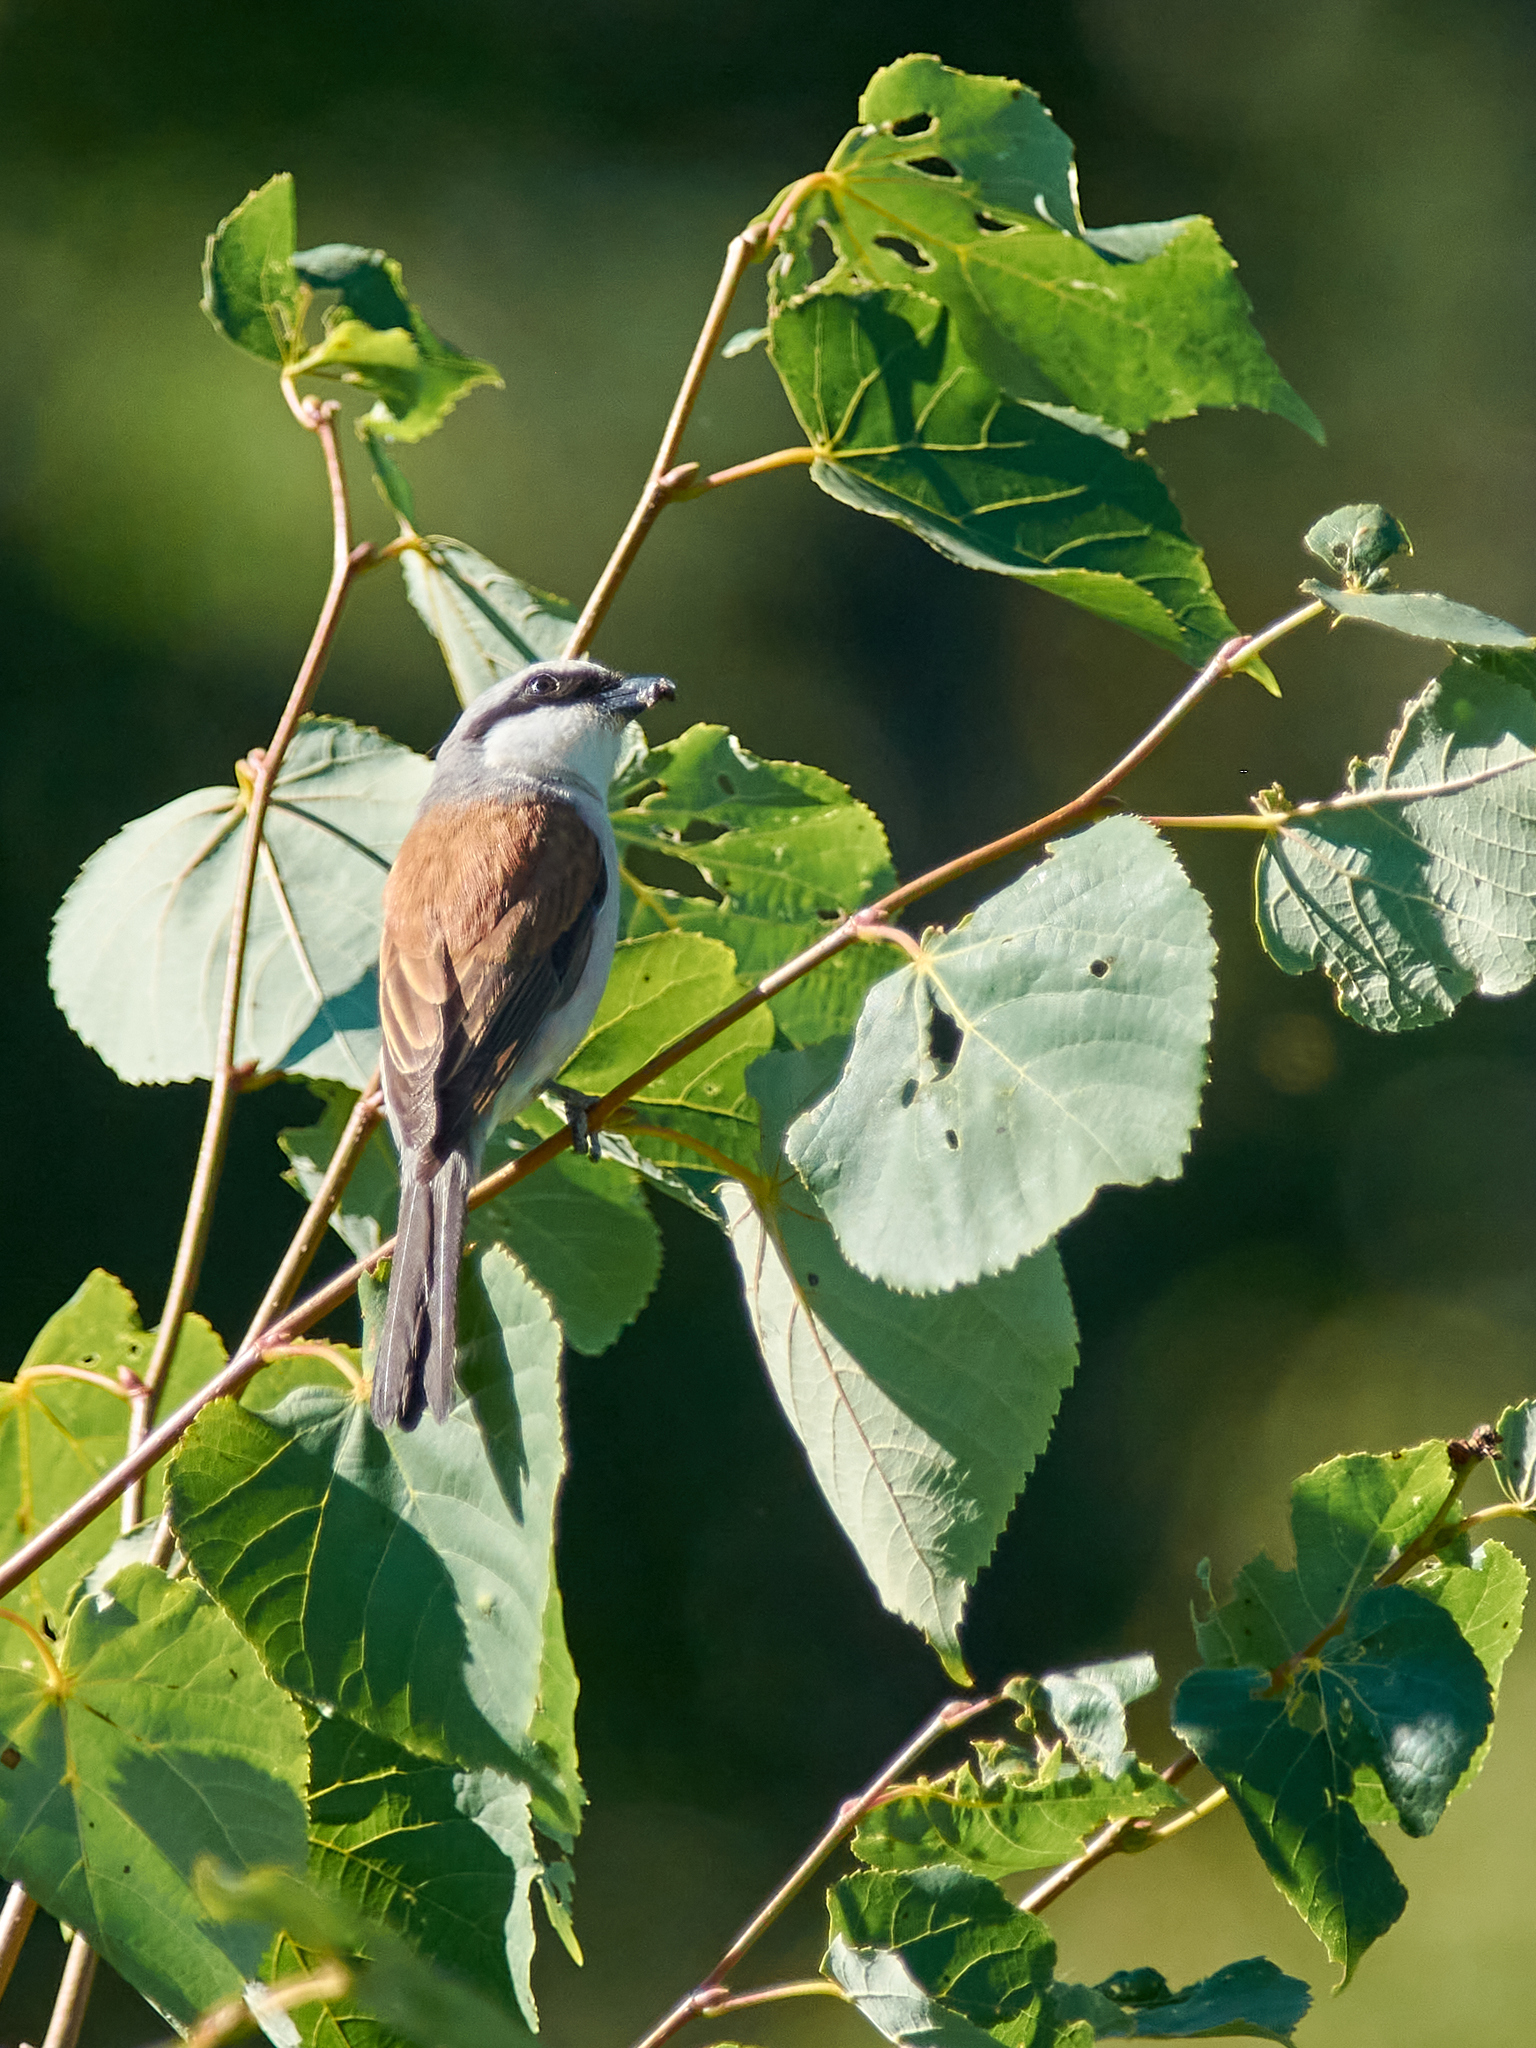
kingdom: Animalia
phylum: Chordata
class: Aves
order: Passeriformes
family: Laniidae
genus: Lanius
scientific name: Lanius collurio
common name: Red-backed shrike
